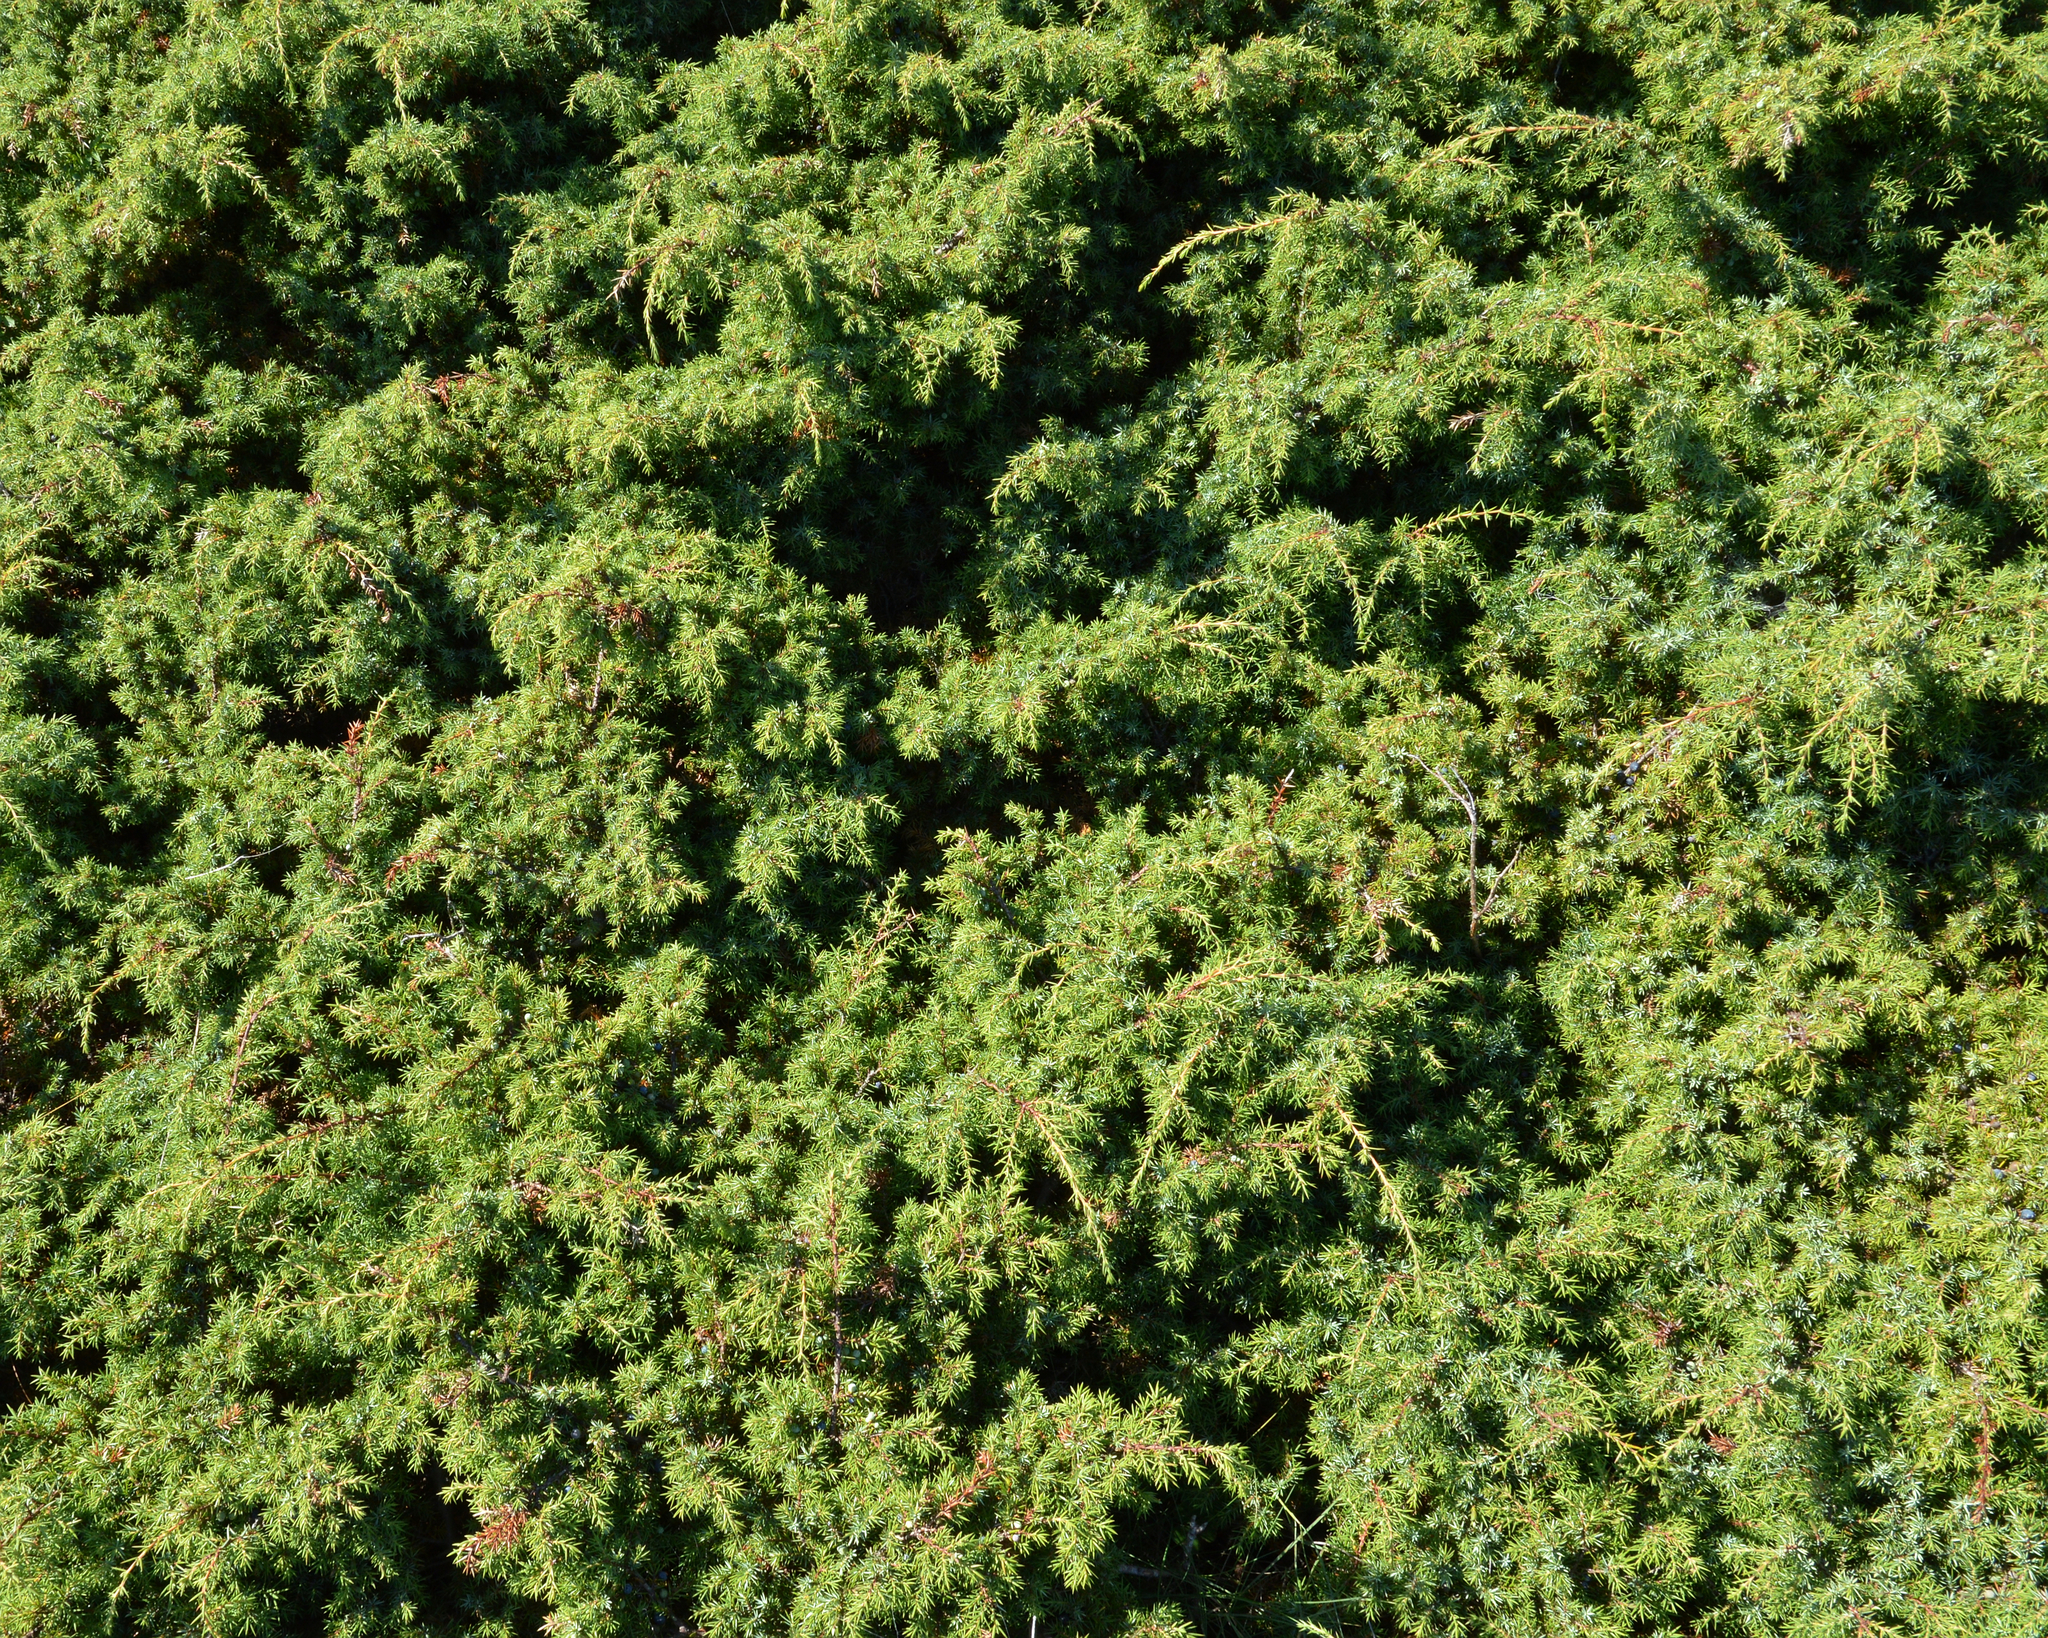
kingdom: Plantae
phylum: Tracheophyta
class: Pinopsida
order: Pinales
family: Cupressaceae
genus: Juniperus
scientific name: Juniperus communis
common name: Common juniper
